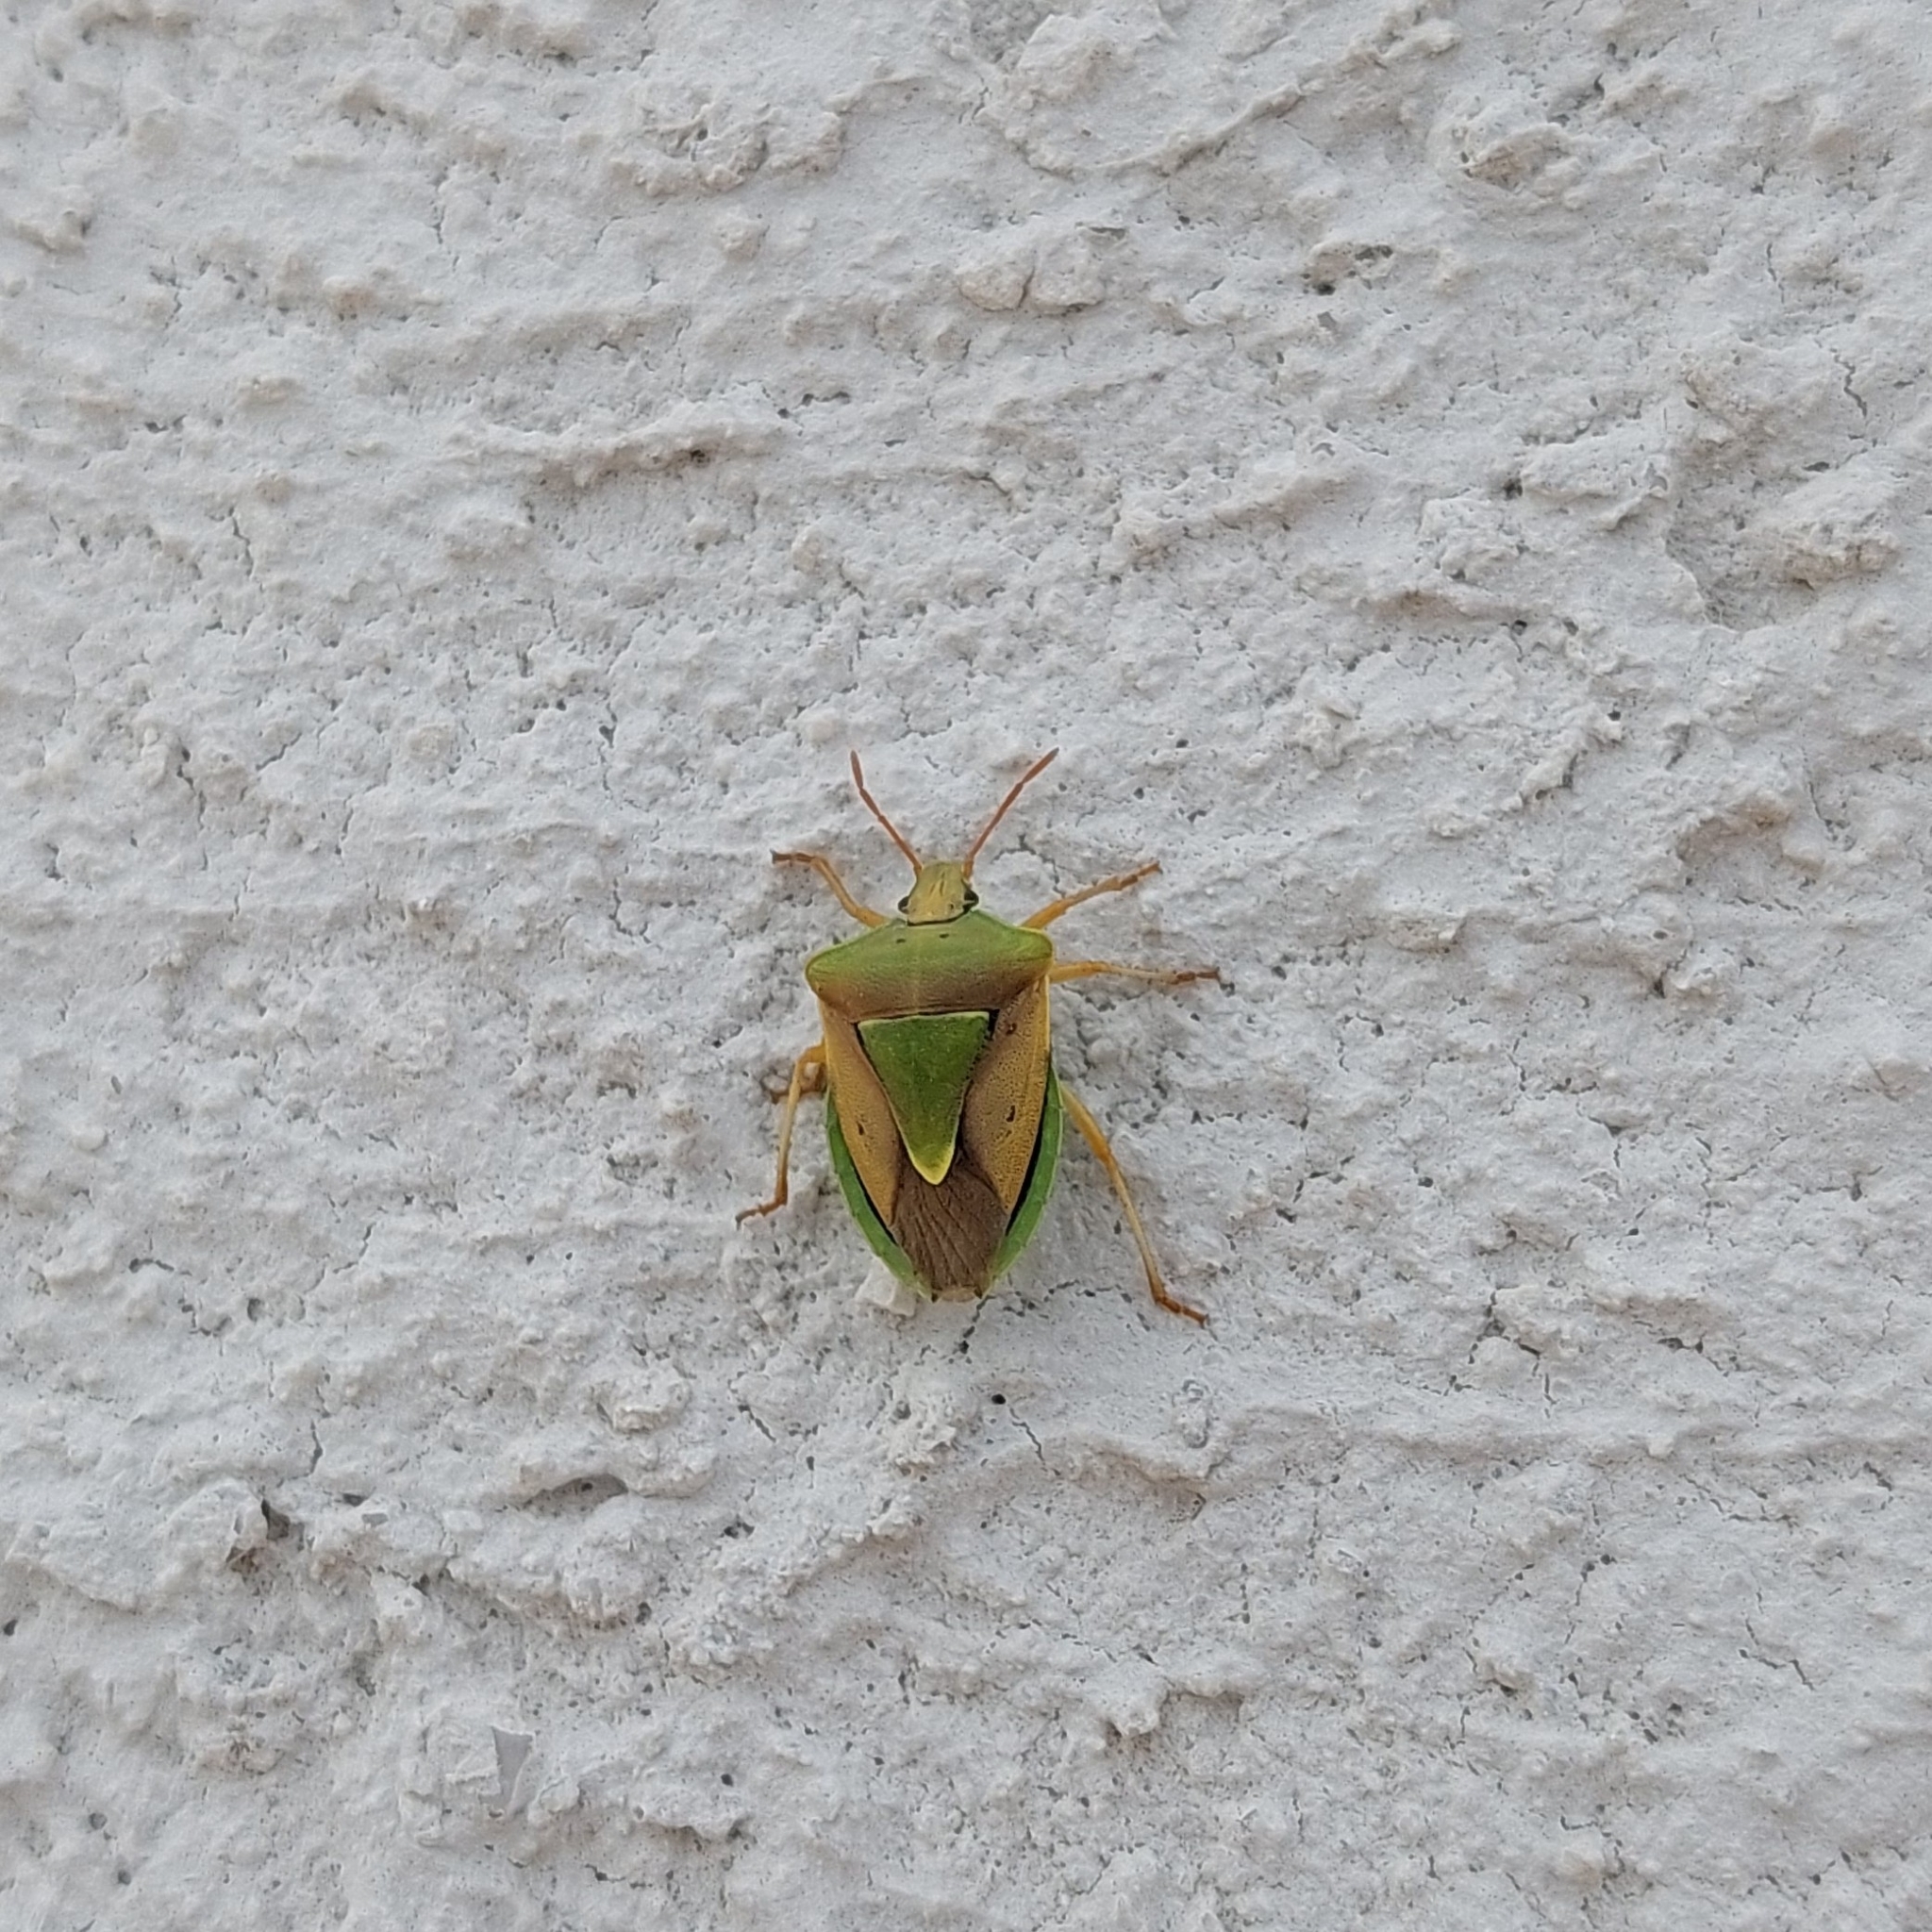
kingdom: Animalia
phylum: Arthropoda
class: Insecta
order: Hemiptera
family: Pentatomidae
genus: Acledra
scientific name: Acledra fraterna
